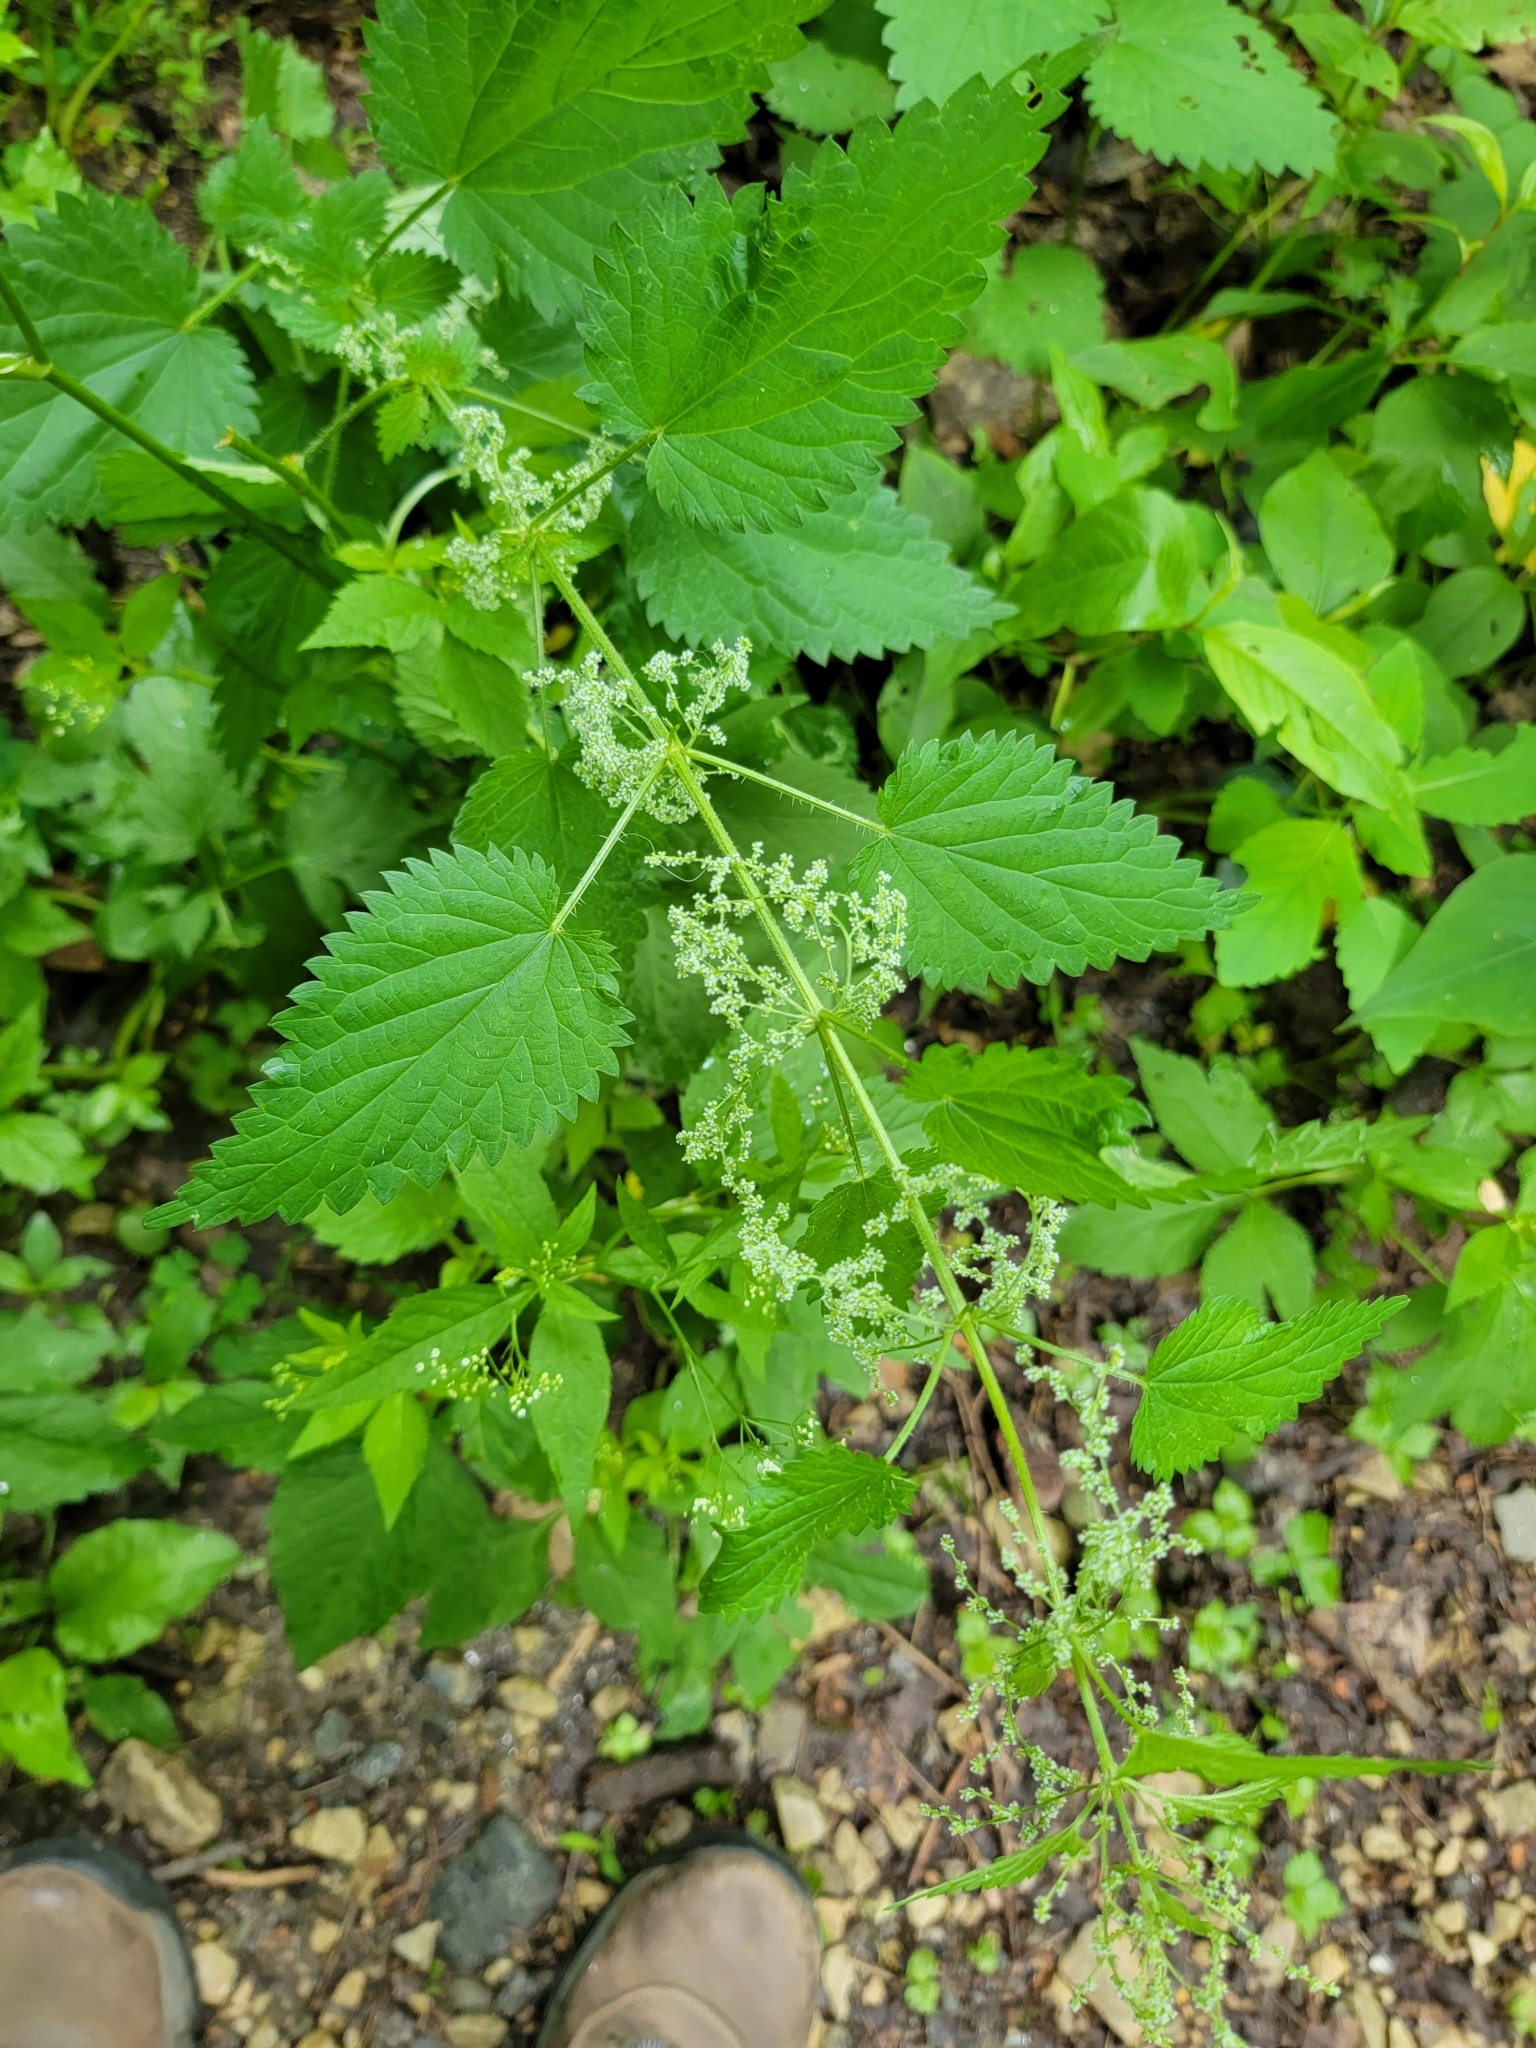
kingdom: Plantae
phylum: Tracheophyta
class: Magnoliopsida
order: Rosales
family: Urticaceae
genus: Urtica
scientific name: Urtica dioica
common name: Common nettle
